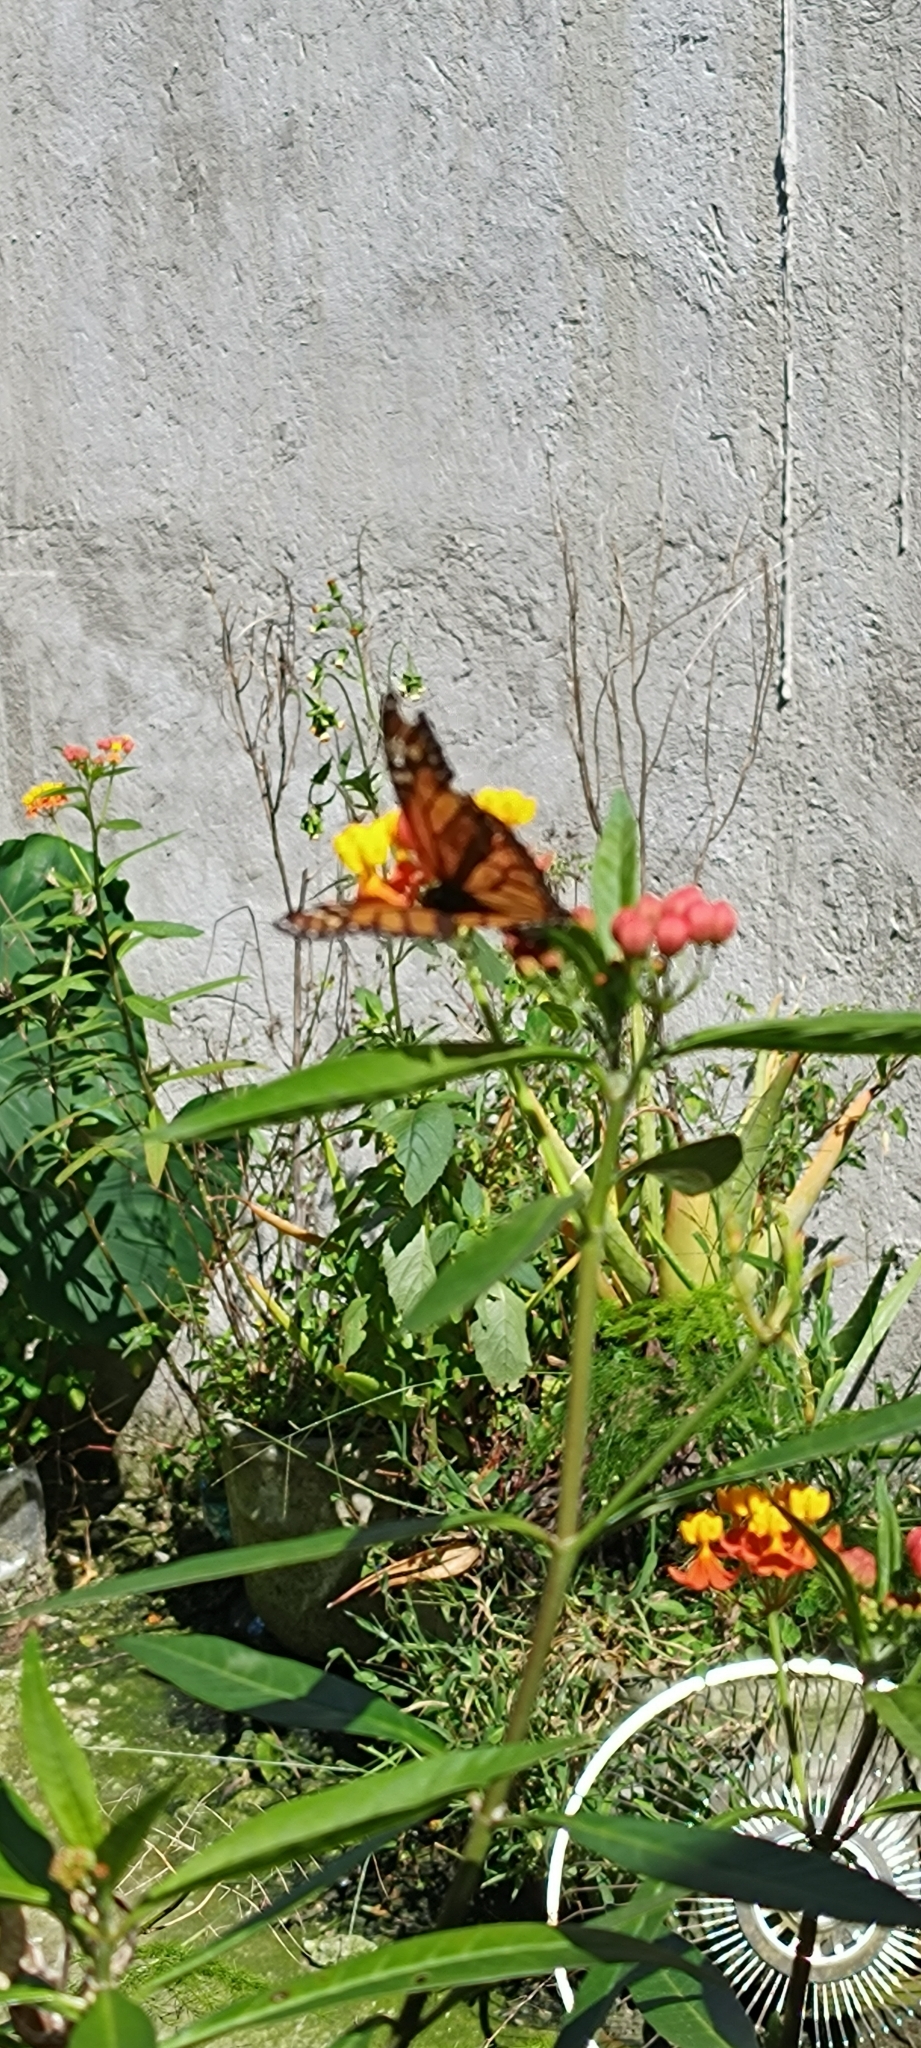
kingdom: Animalia
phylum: Arthropoda
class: Insecta
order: Lepidoptera
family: Nymphalidae
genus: Danaus
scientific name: Danaus plexippus
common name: Monarch
